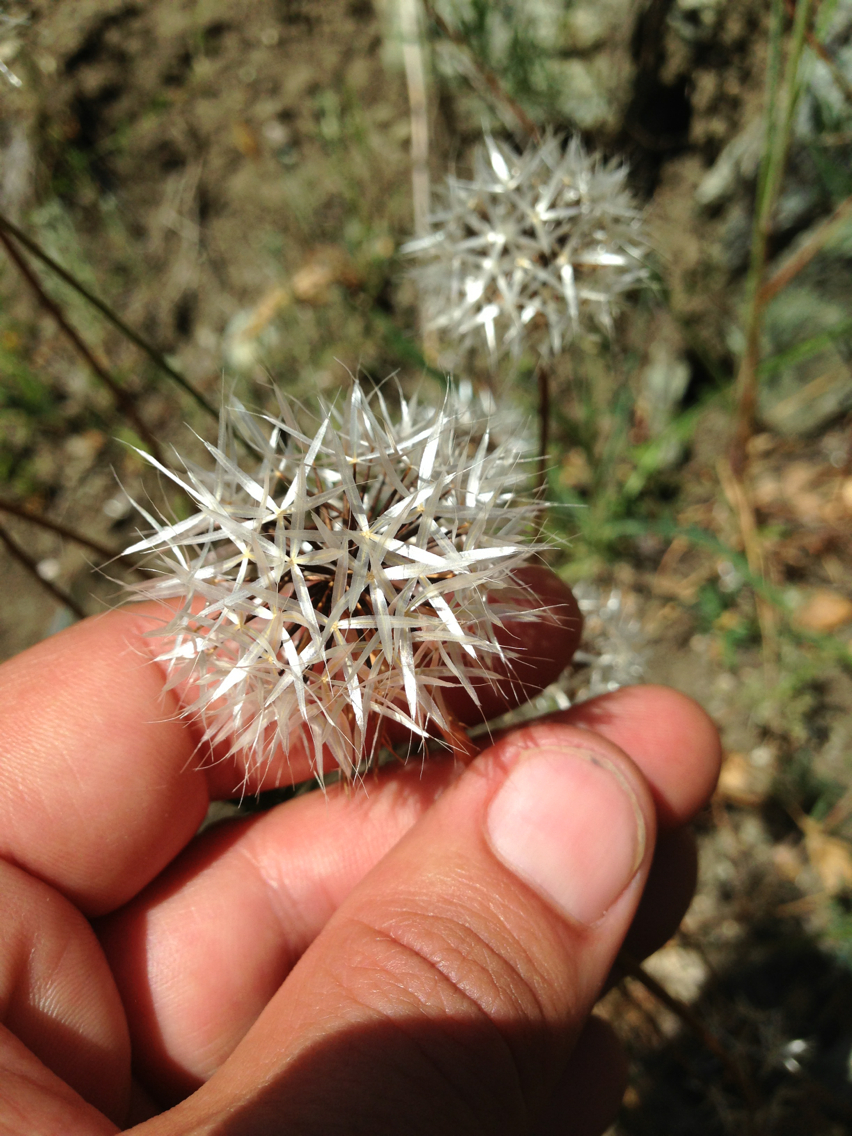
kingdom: Plantae
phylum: Tracheophyta
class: Magnoliopsida
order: Asterales
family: Asteraceae
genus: Microseris
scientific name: Microseris lindleyi
